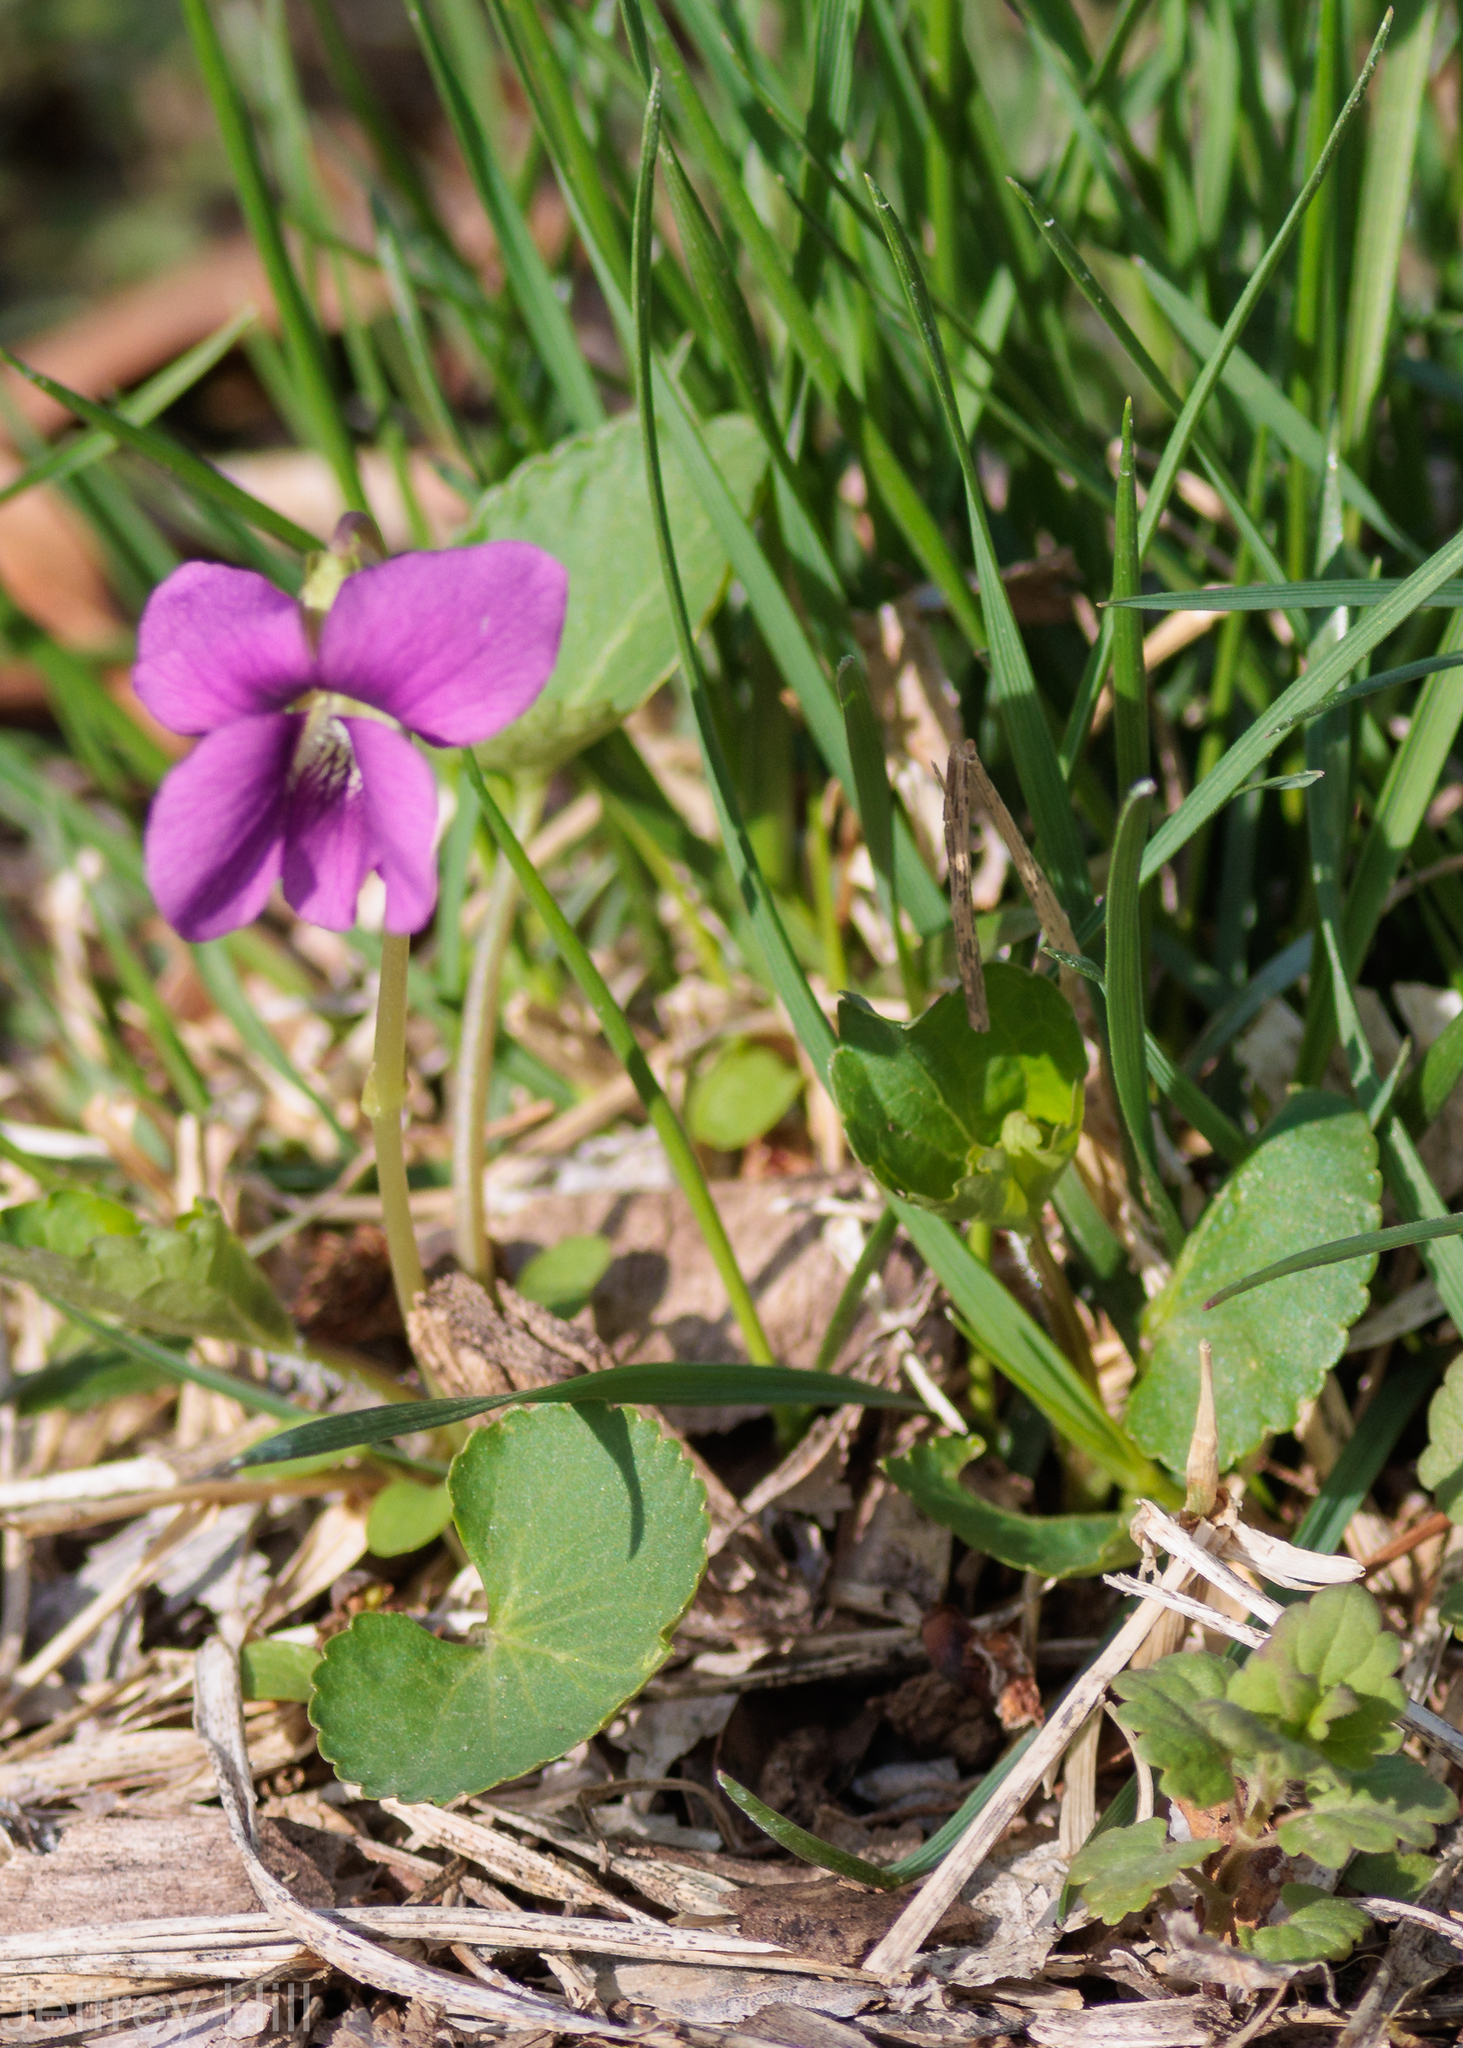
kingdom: Plantae
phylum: Tracheophyta
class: Magnoliopsida
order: Malpighiales
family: Violaceae
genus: Viola
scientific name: Viola sororia
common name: Dooryard violet
